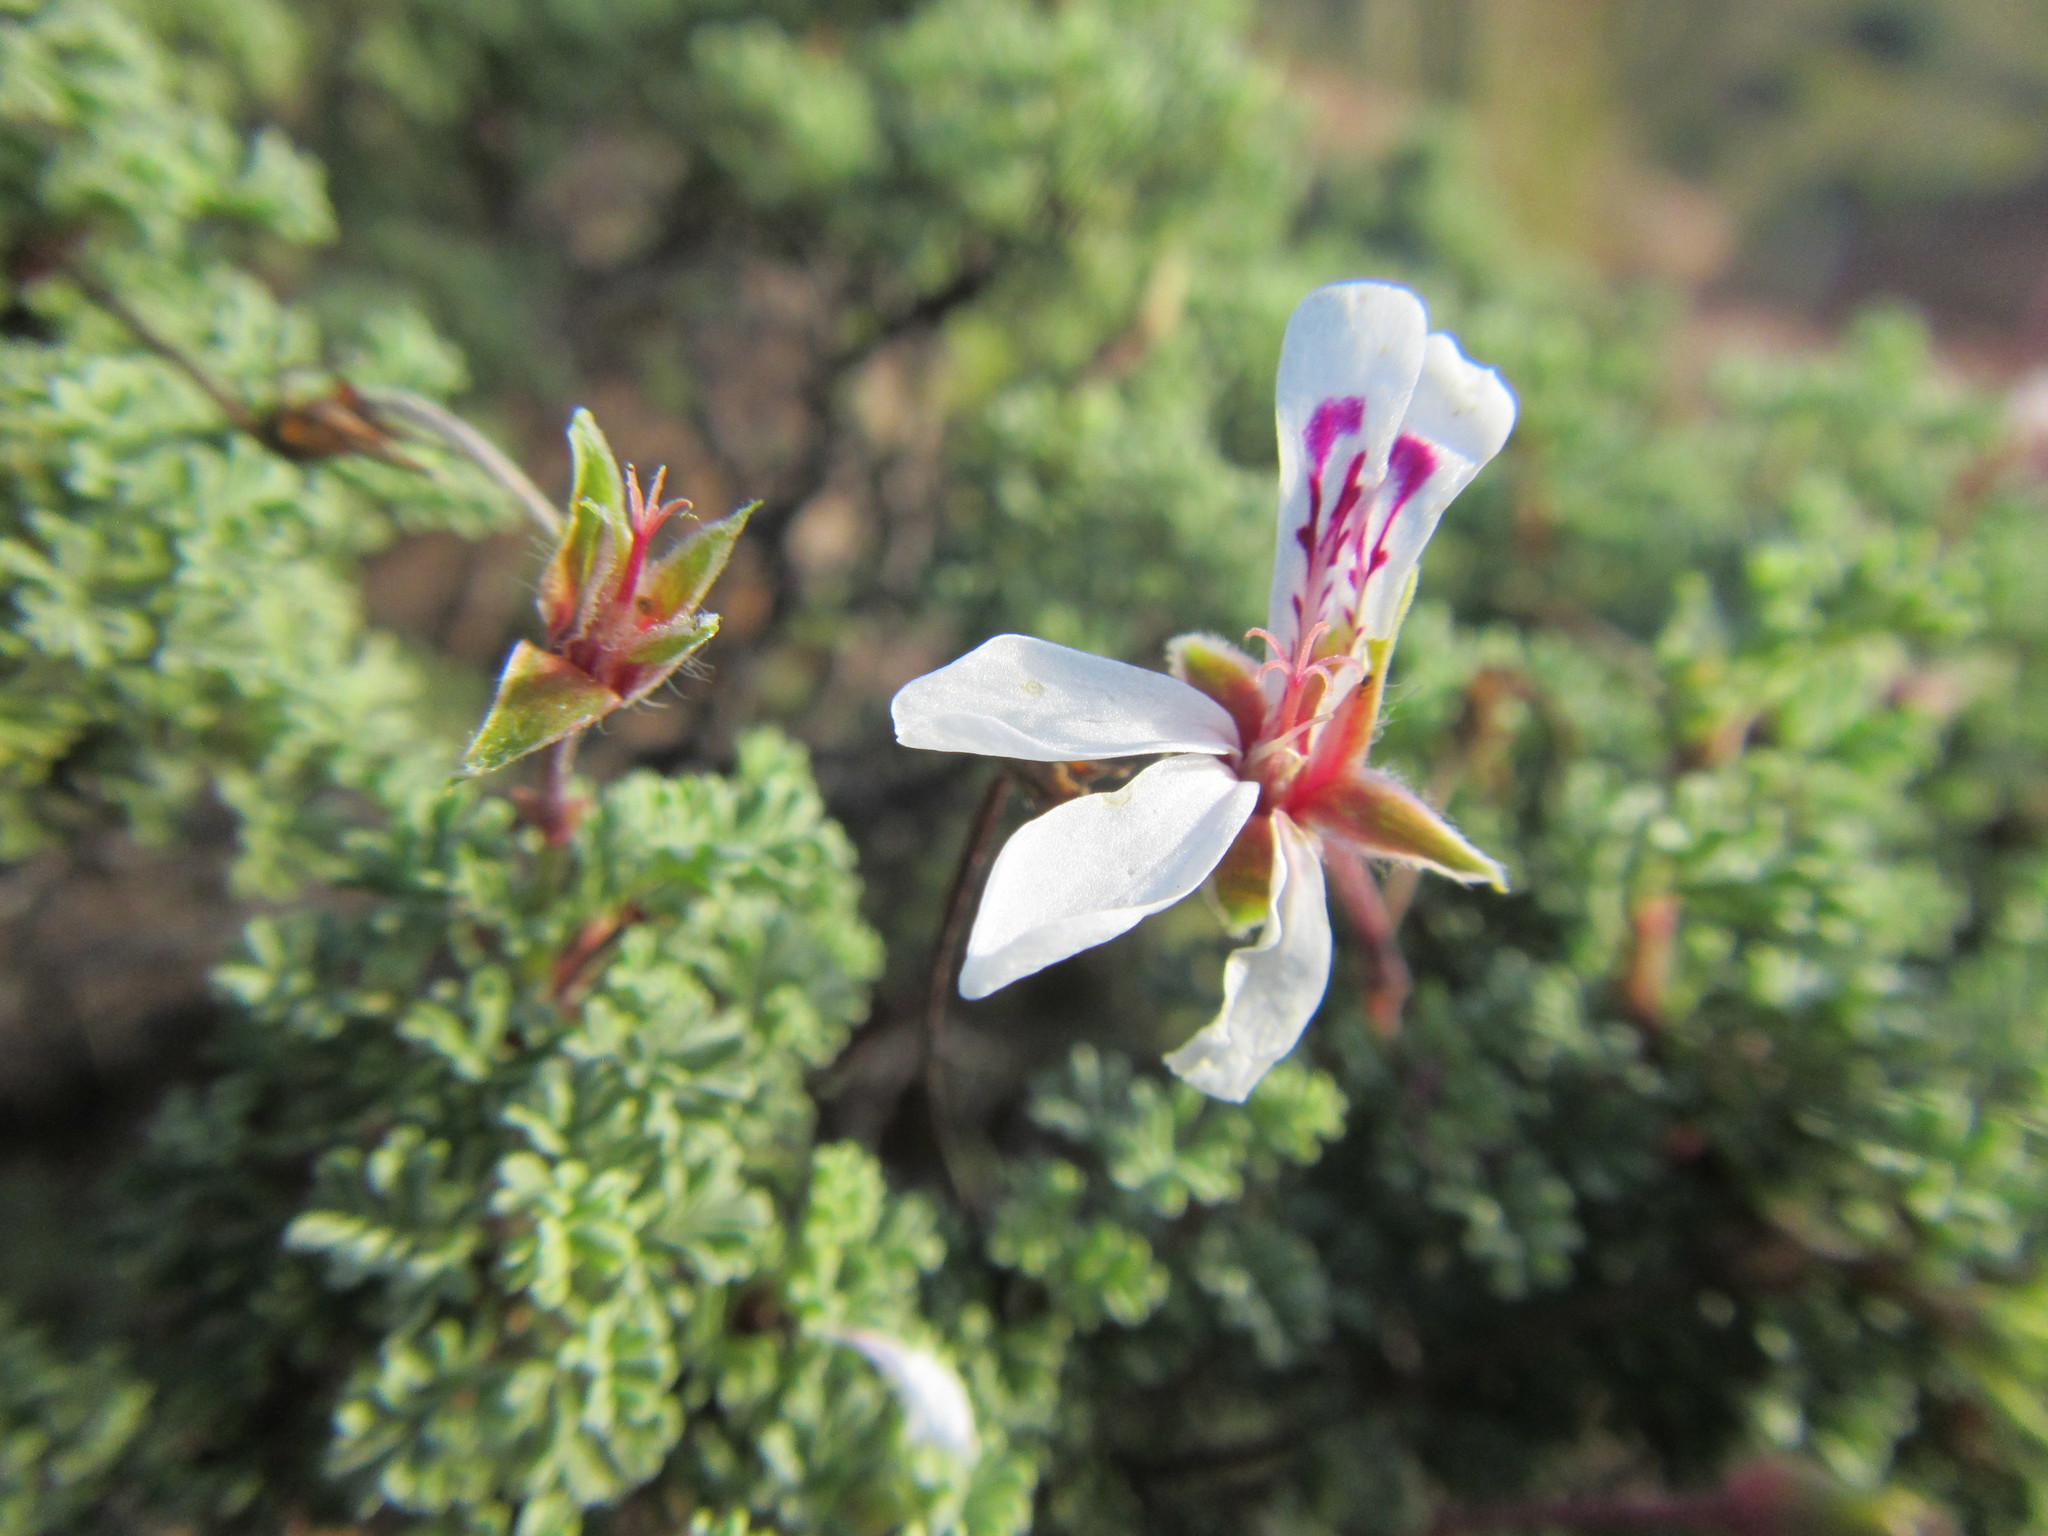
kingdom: Plantae
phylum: Tracheophyta
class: Magnoliopsida
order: Geraniales
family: Geraniaceae
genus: Pelargonium
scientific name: Pelargonium abrotanifolium
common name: Southernwood geranium
